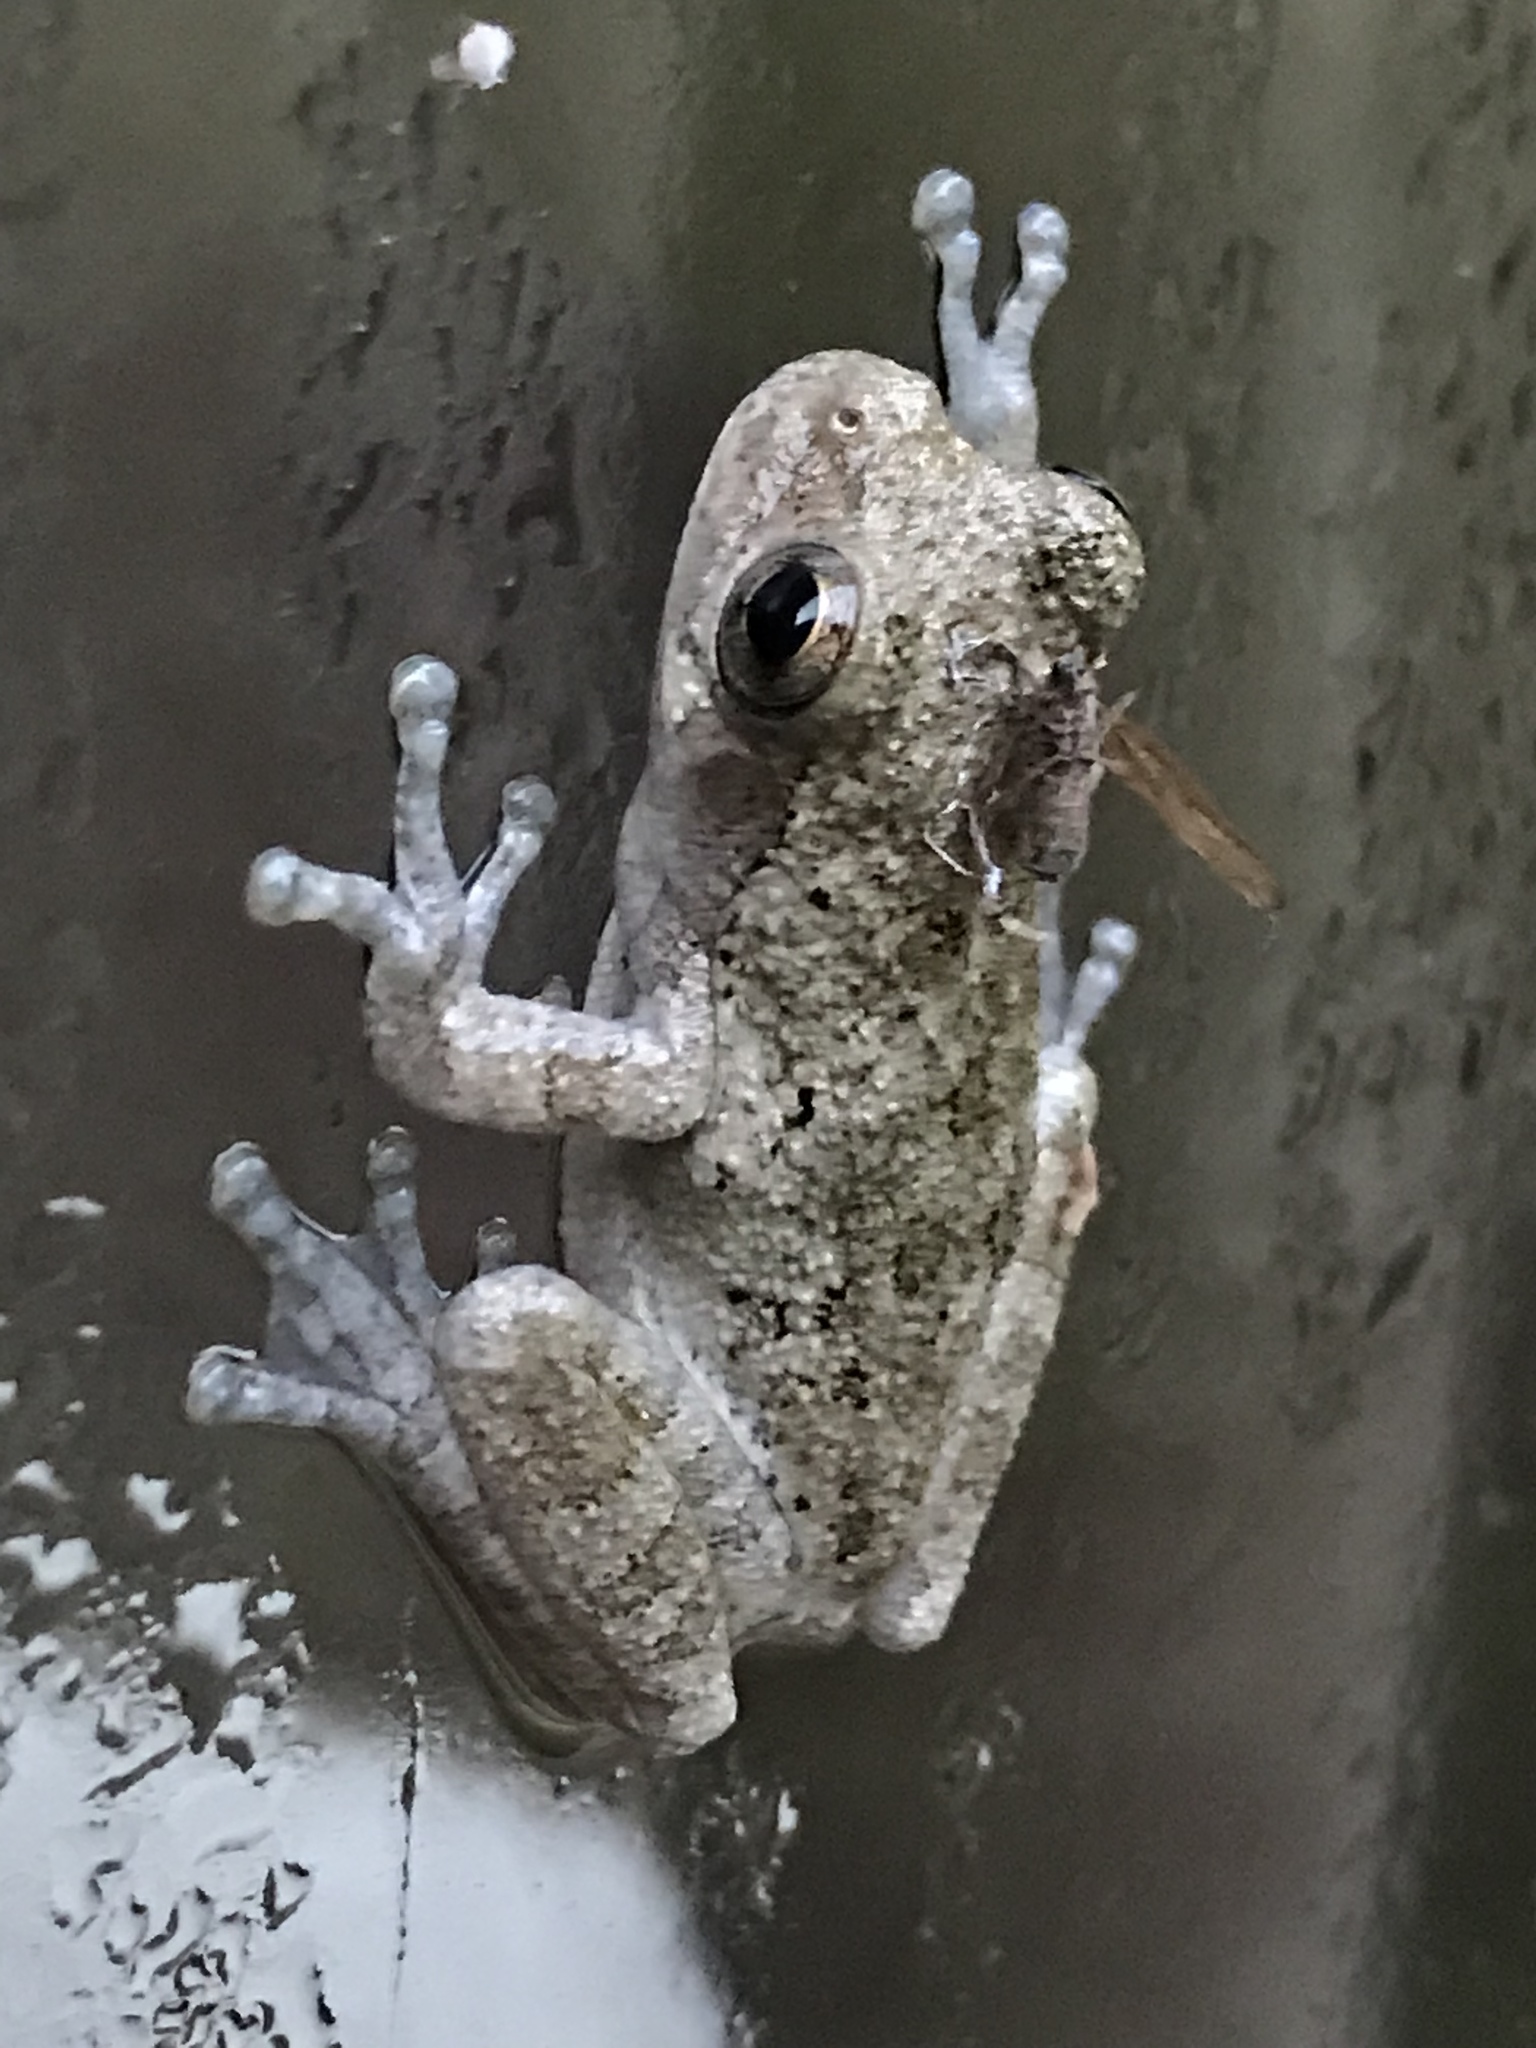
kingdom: Animalia
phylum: Chordata
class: Amphibia
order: Anura
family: Hylidae
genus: Dryophytes
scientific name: Dryophytes chrysoscelis
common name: Cope's gray treefrog
